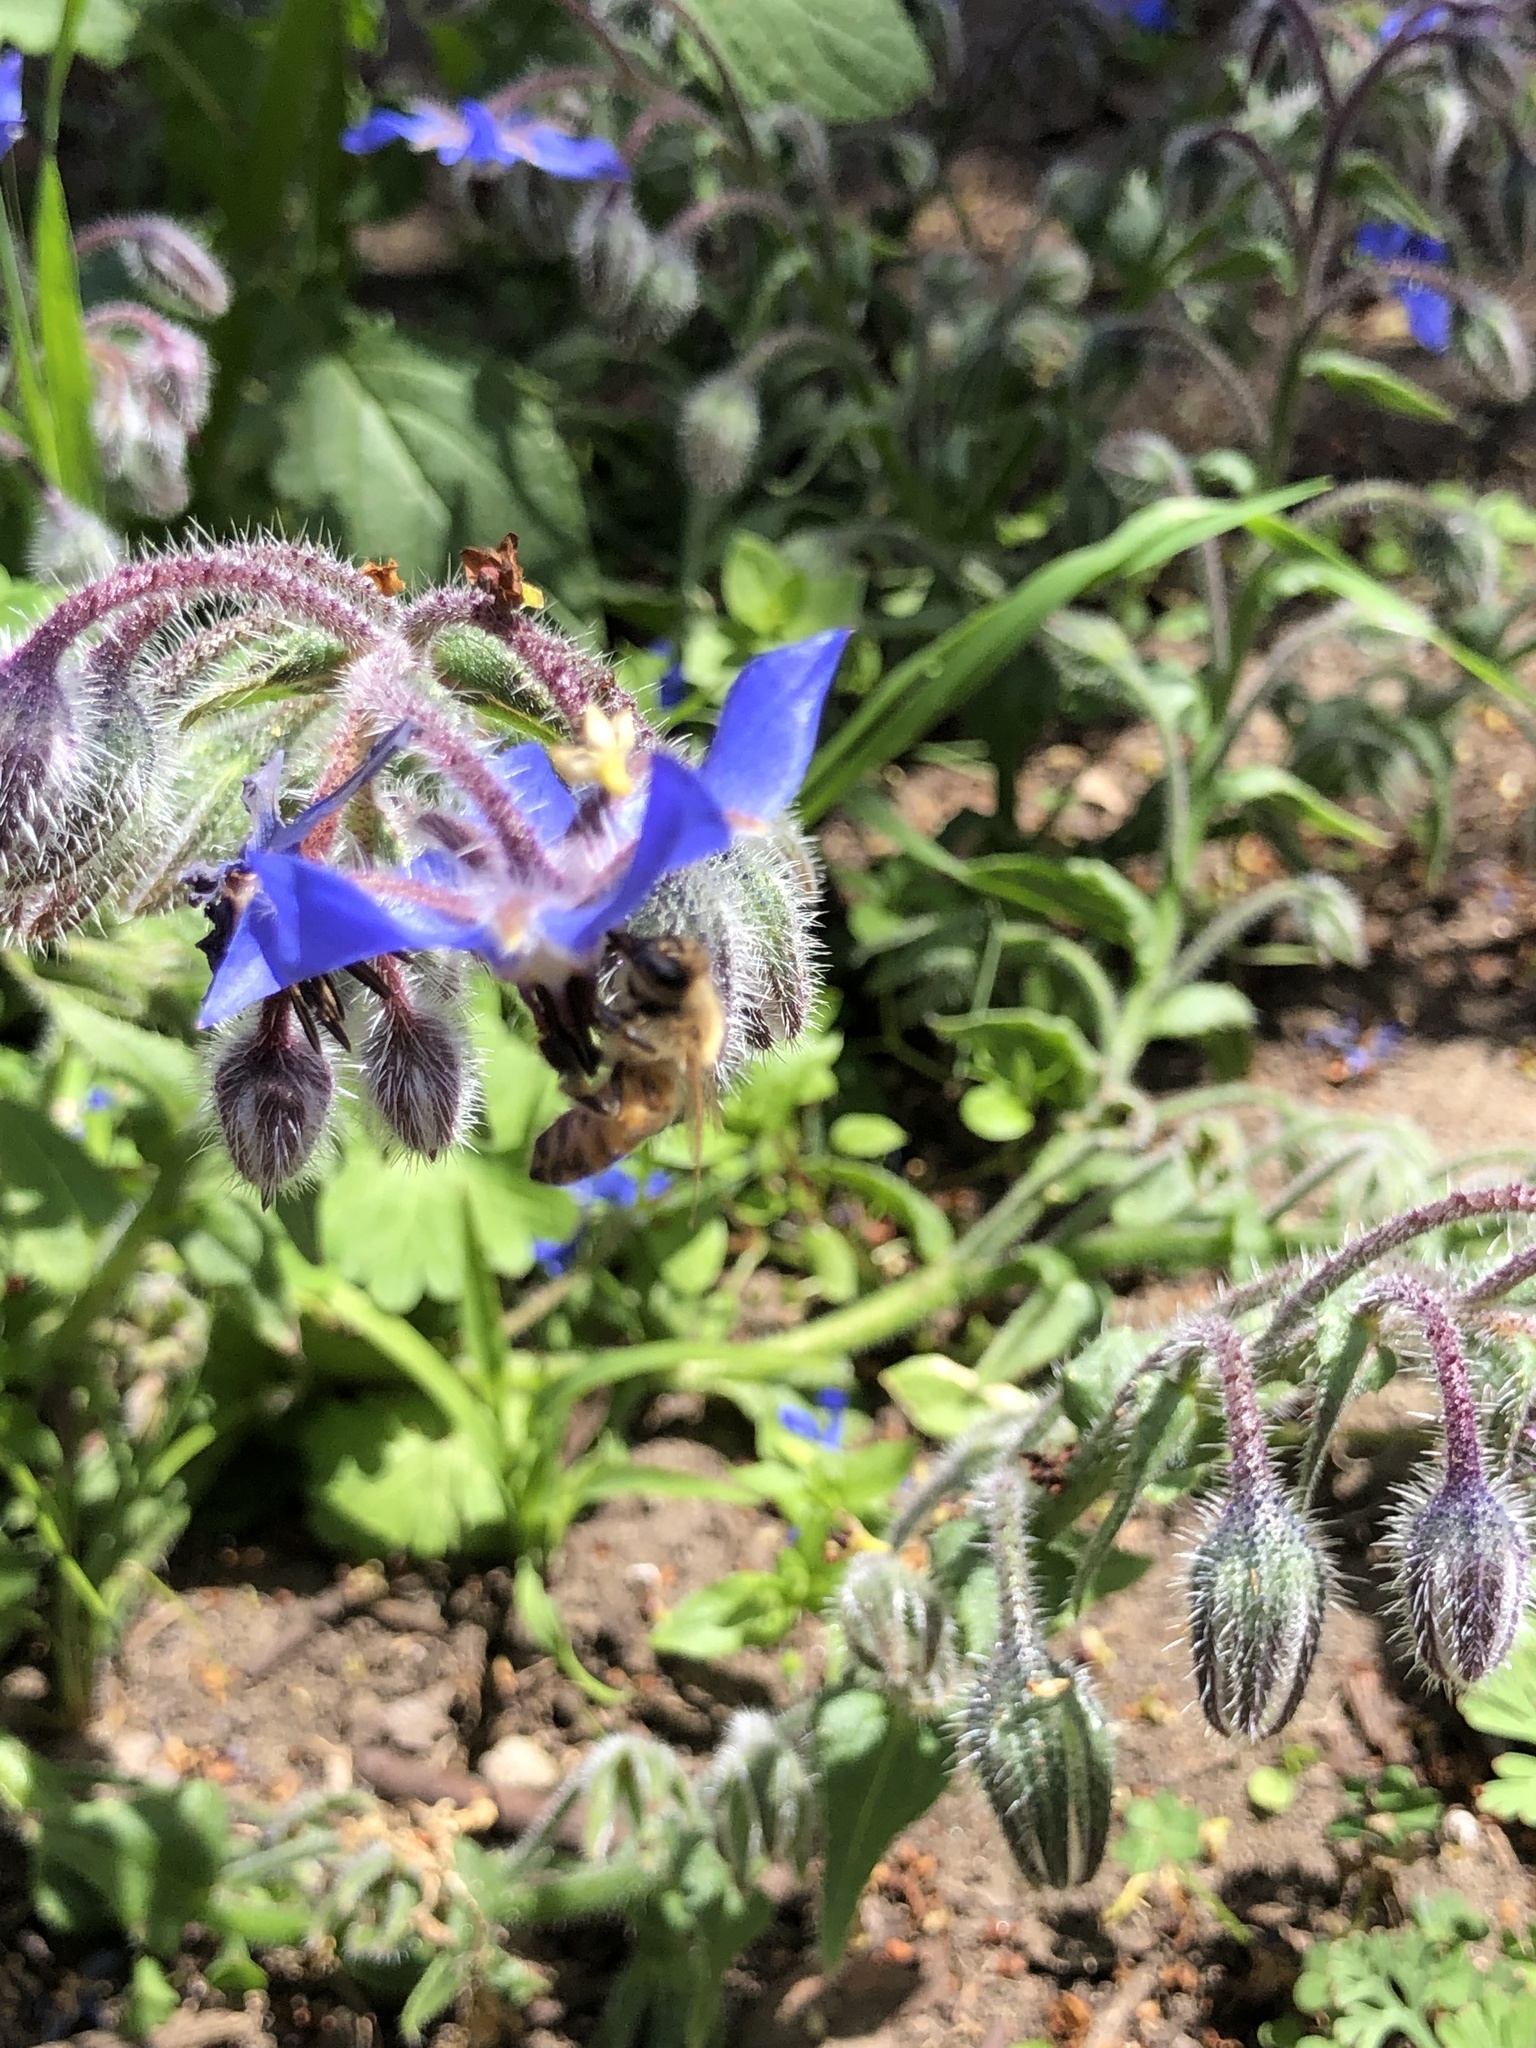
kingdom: Animalia
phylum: Arthropoda
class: Insecta
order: Hymenoptera
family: Apidae
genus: Apis
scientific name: Apis mellifera
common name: Honey bee
